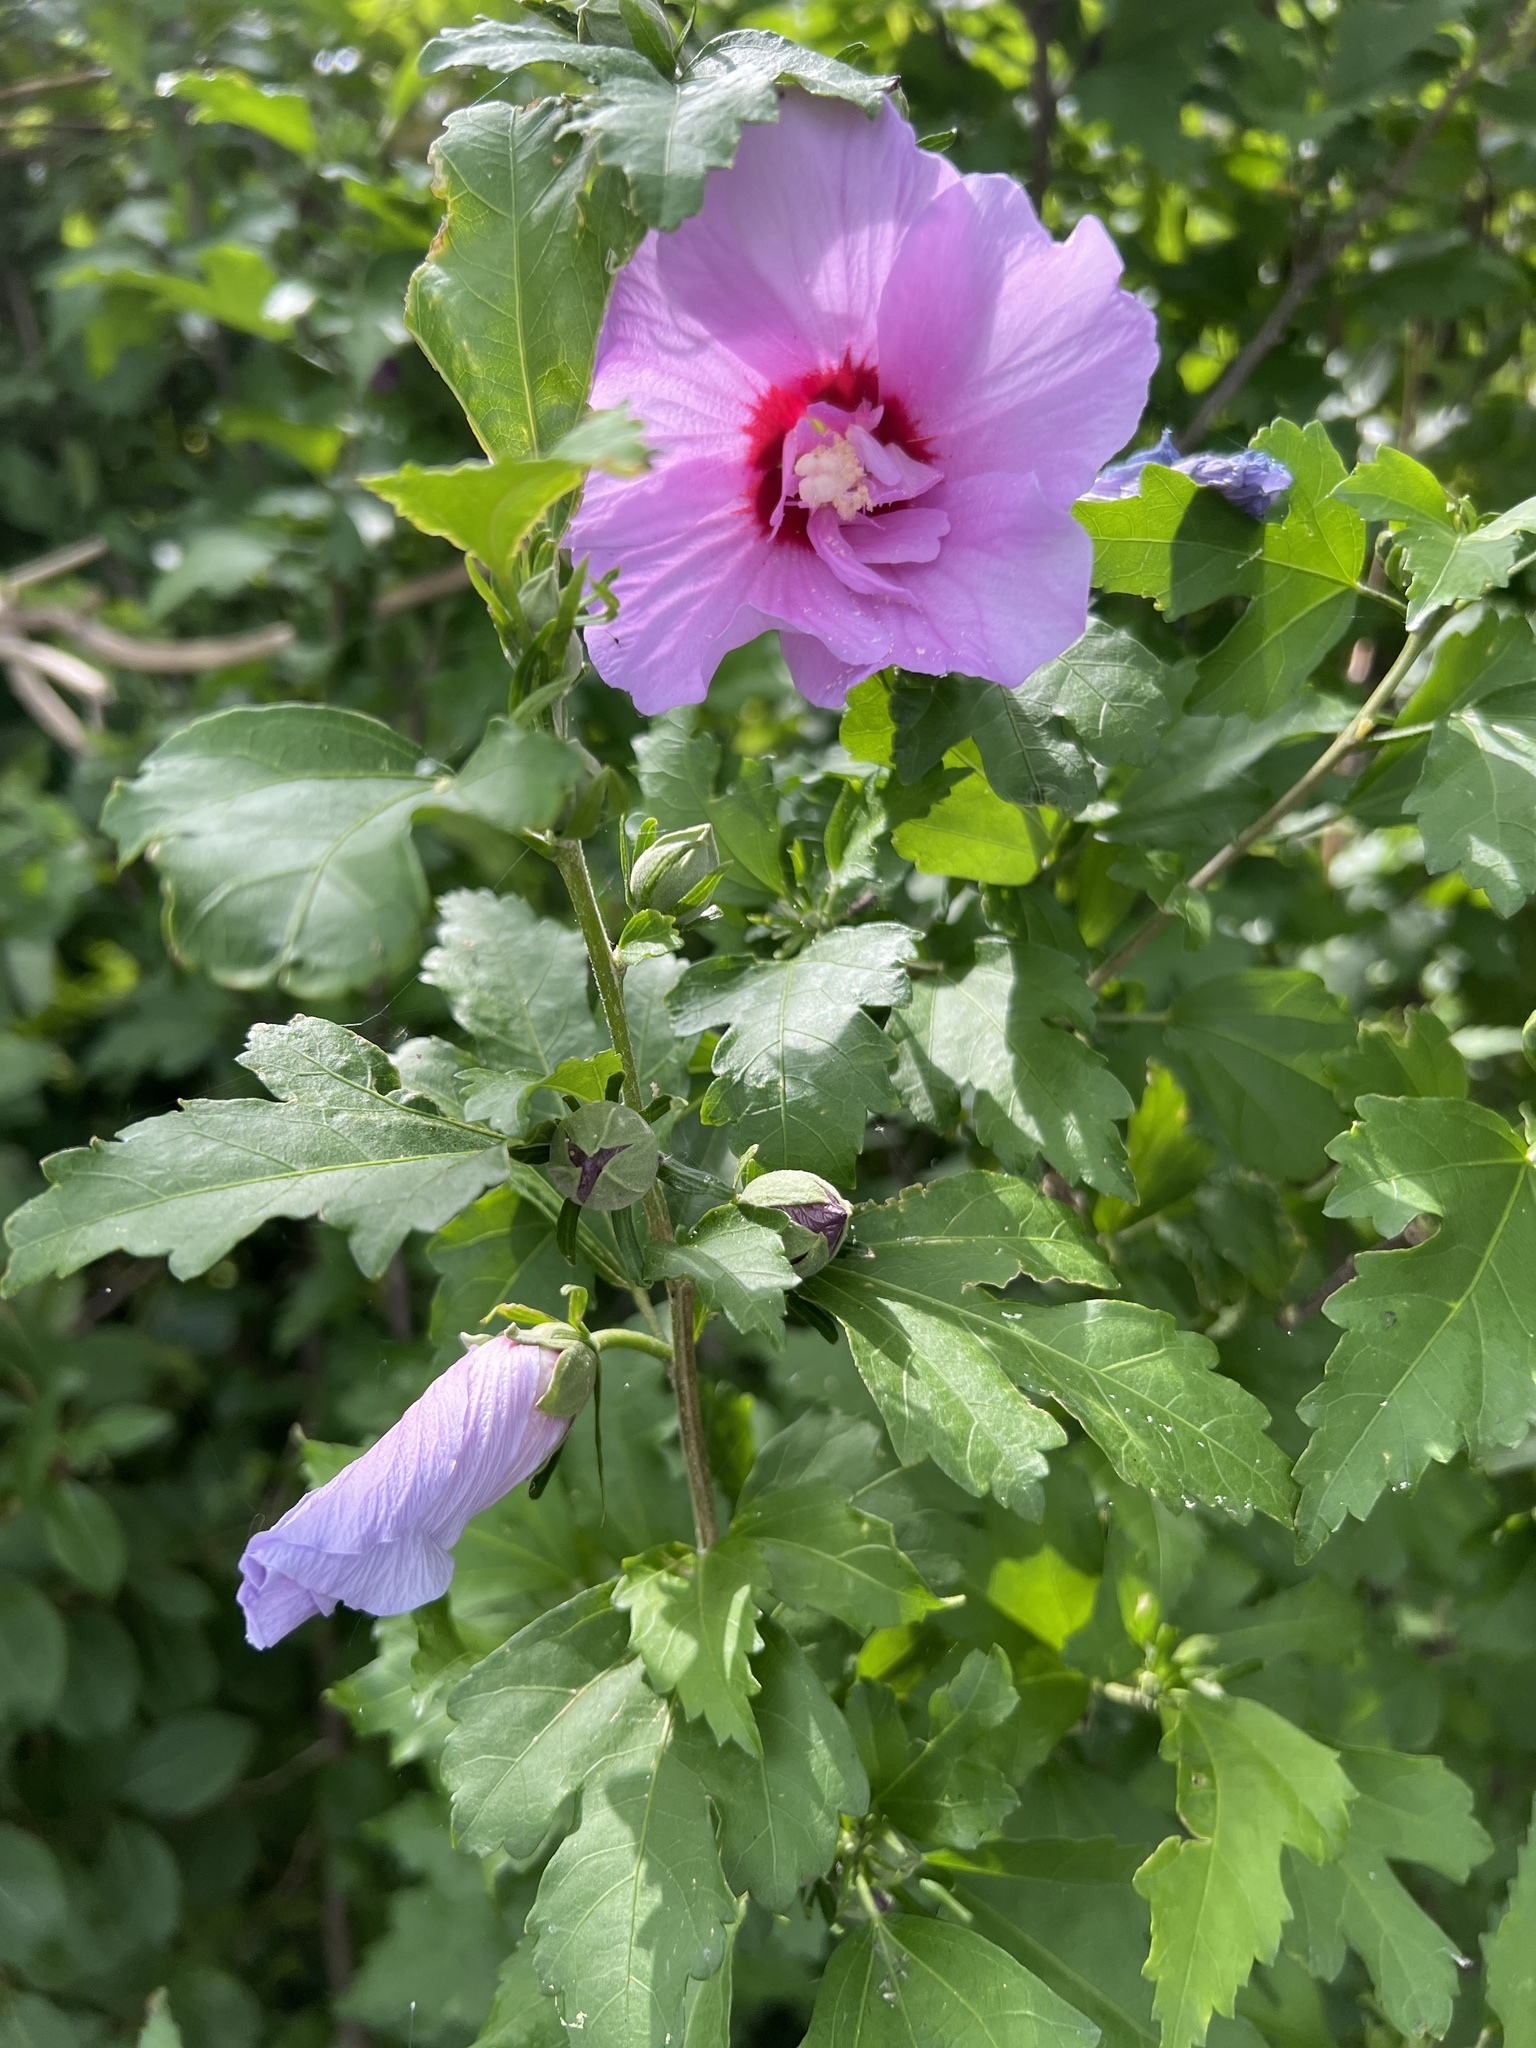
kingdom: Plantae
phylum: Tracheophyta
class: Magnoliopsida
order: Malvales
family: Malvaceae
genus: Hibiscus
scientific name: Hibiscus syriacus
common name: Syrian ketmia
